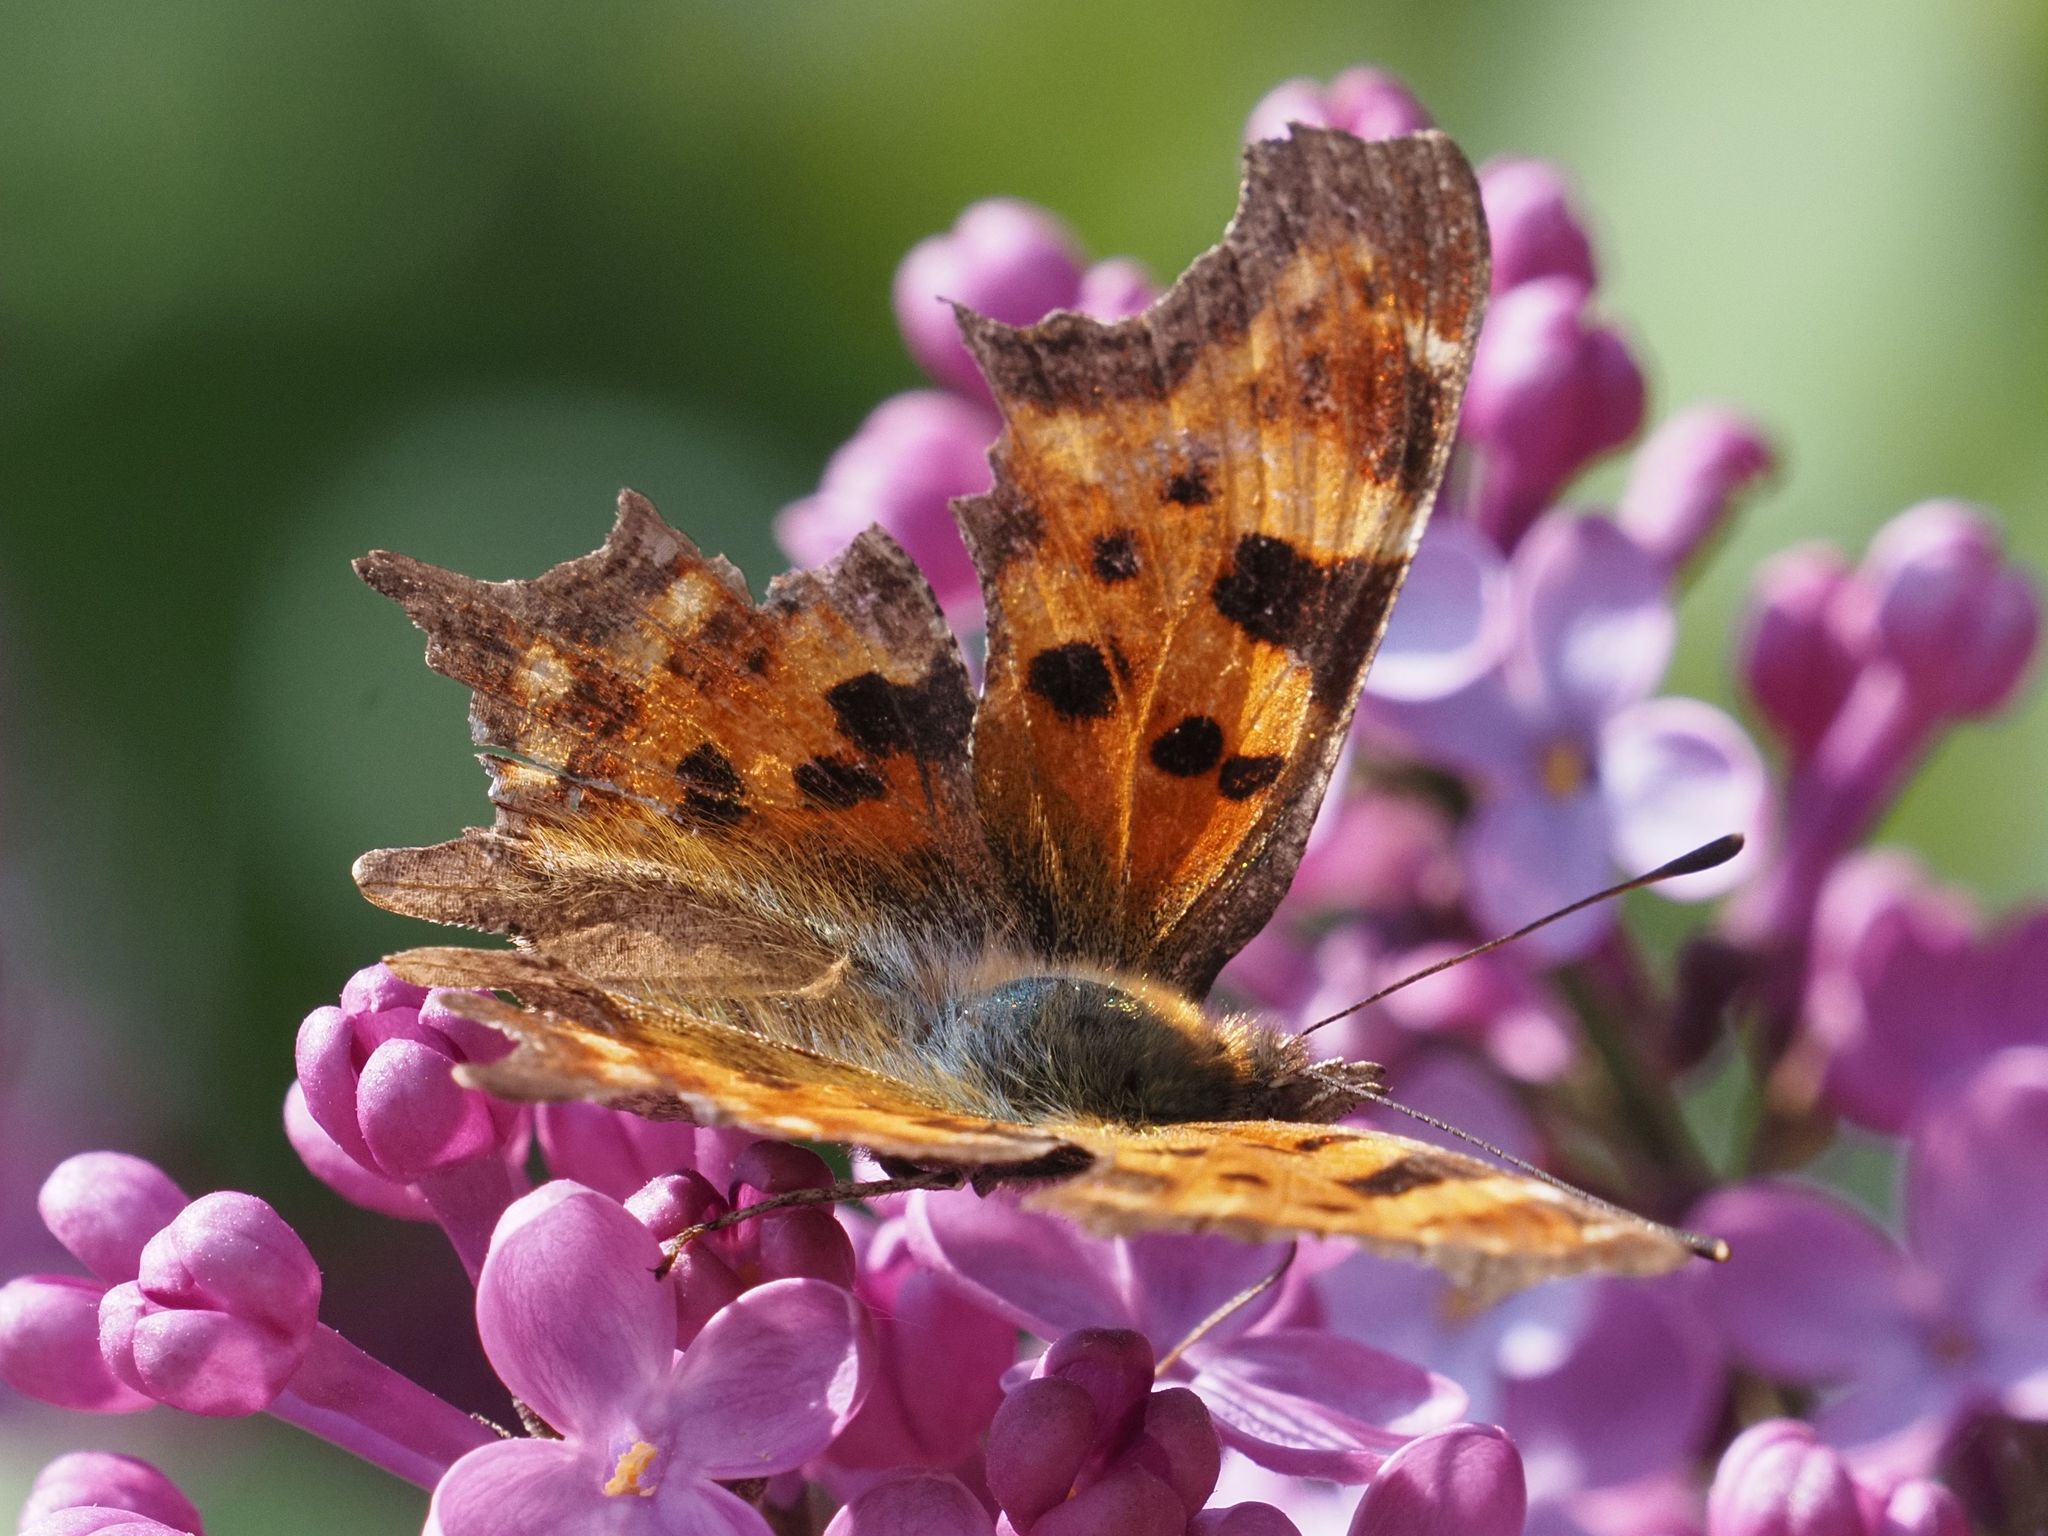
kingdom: Animalia
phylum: Arthropoda
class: Insecta
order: Lepidoptera
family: Nymphalidae
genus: Polygonia
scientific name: Polygonia c-album
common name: Comma
